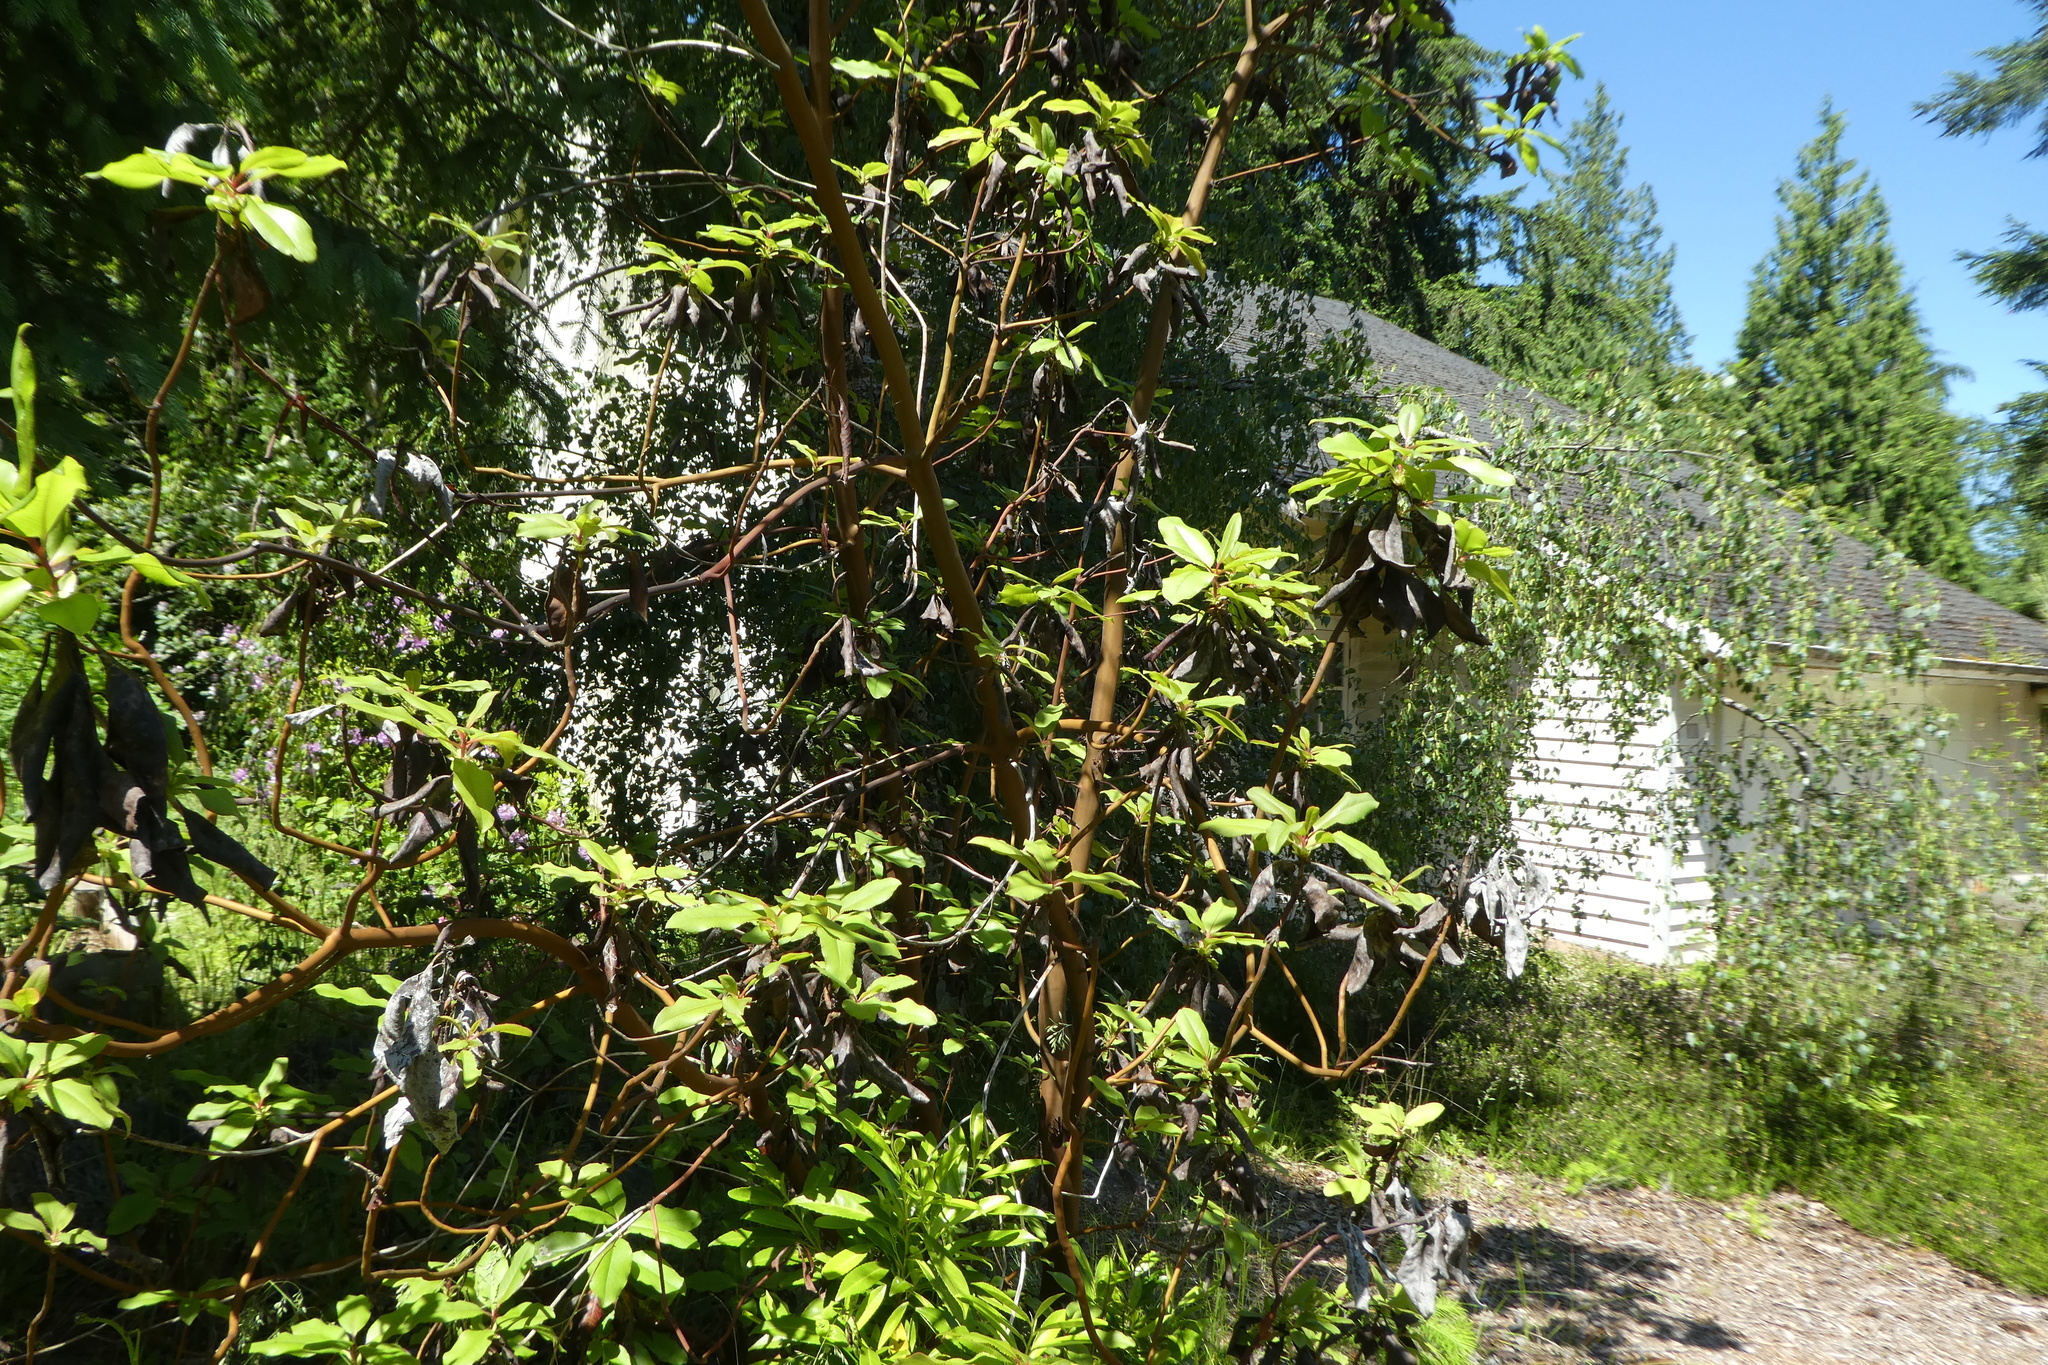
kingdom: Plantae
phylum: Tracheophyta
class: Magnoliopsida
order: Ericales
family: Ericaceae
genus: Arbutus
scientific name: Arbutus menziesii
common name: Pacific madrone
